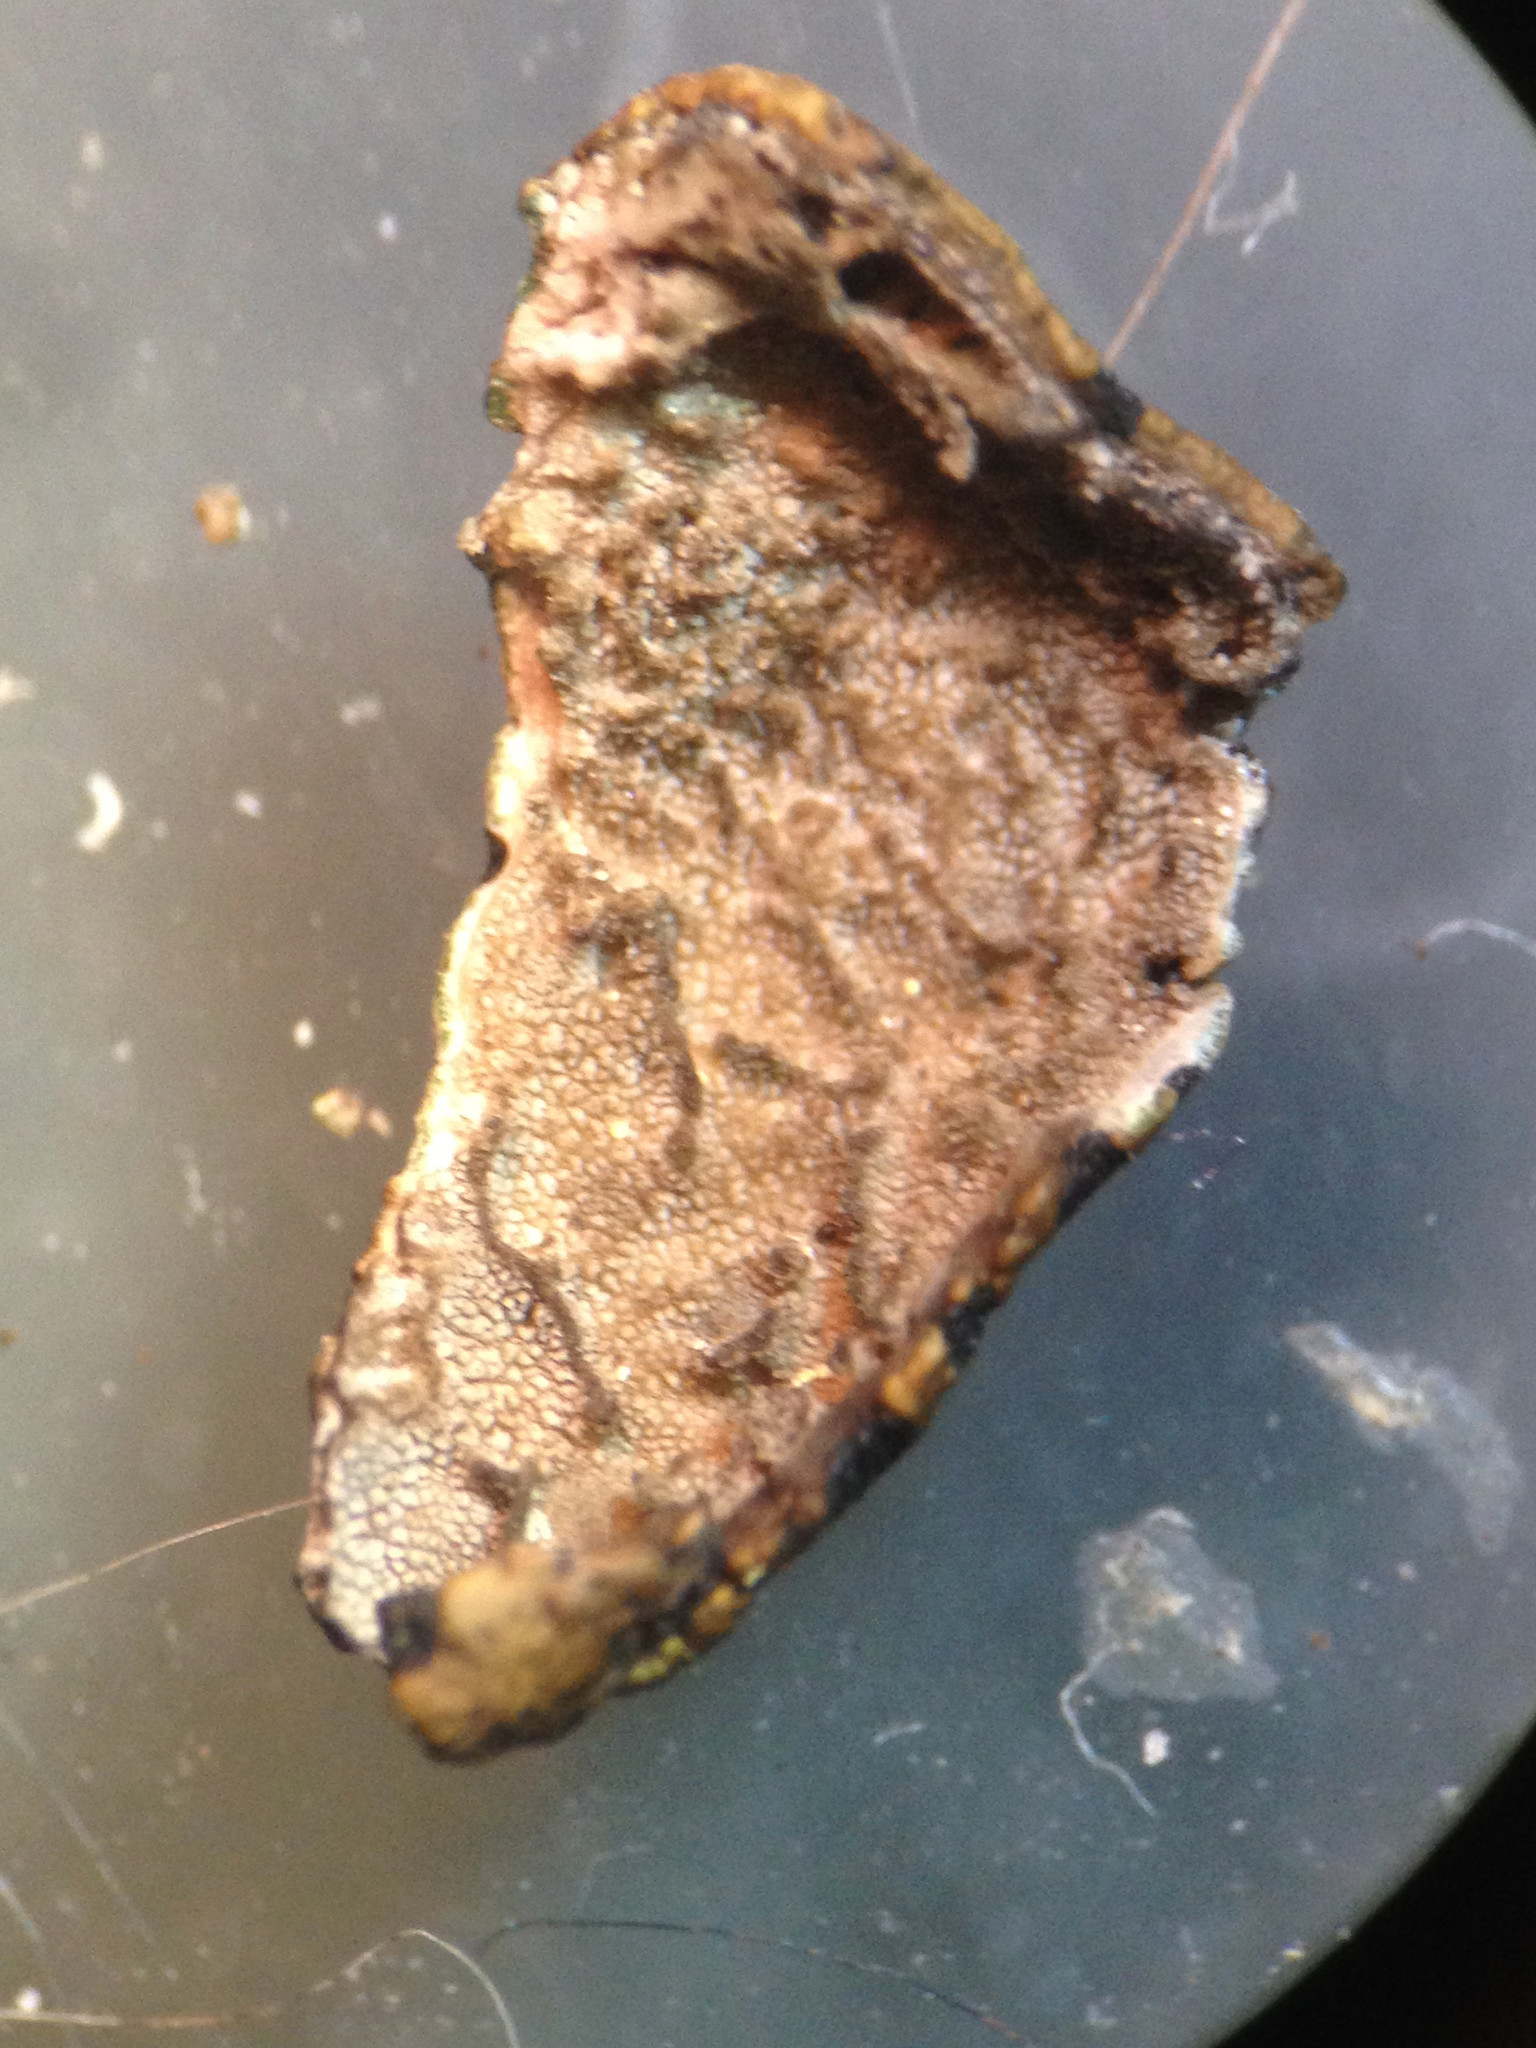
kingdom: Fungi
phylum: Ascomycota
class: Lecanoromycetes
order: Umbilicariales
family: Umbilicariaceae
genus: Umbilicaria
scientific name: Umbilicaria phaea
